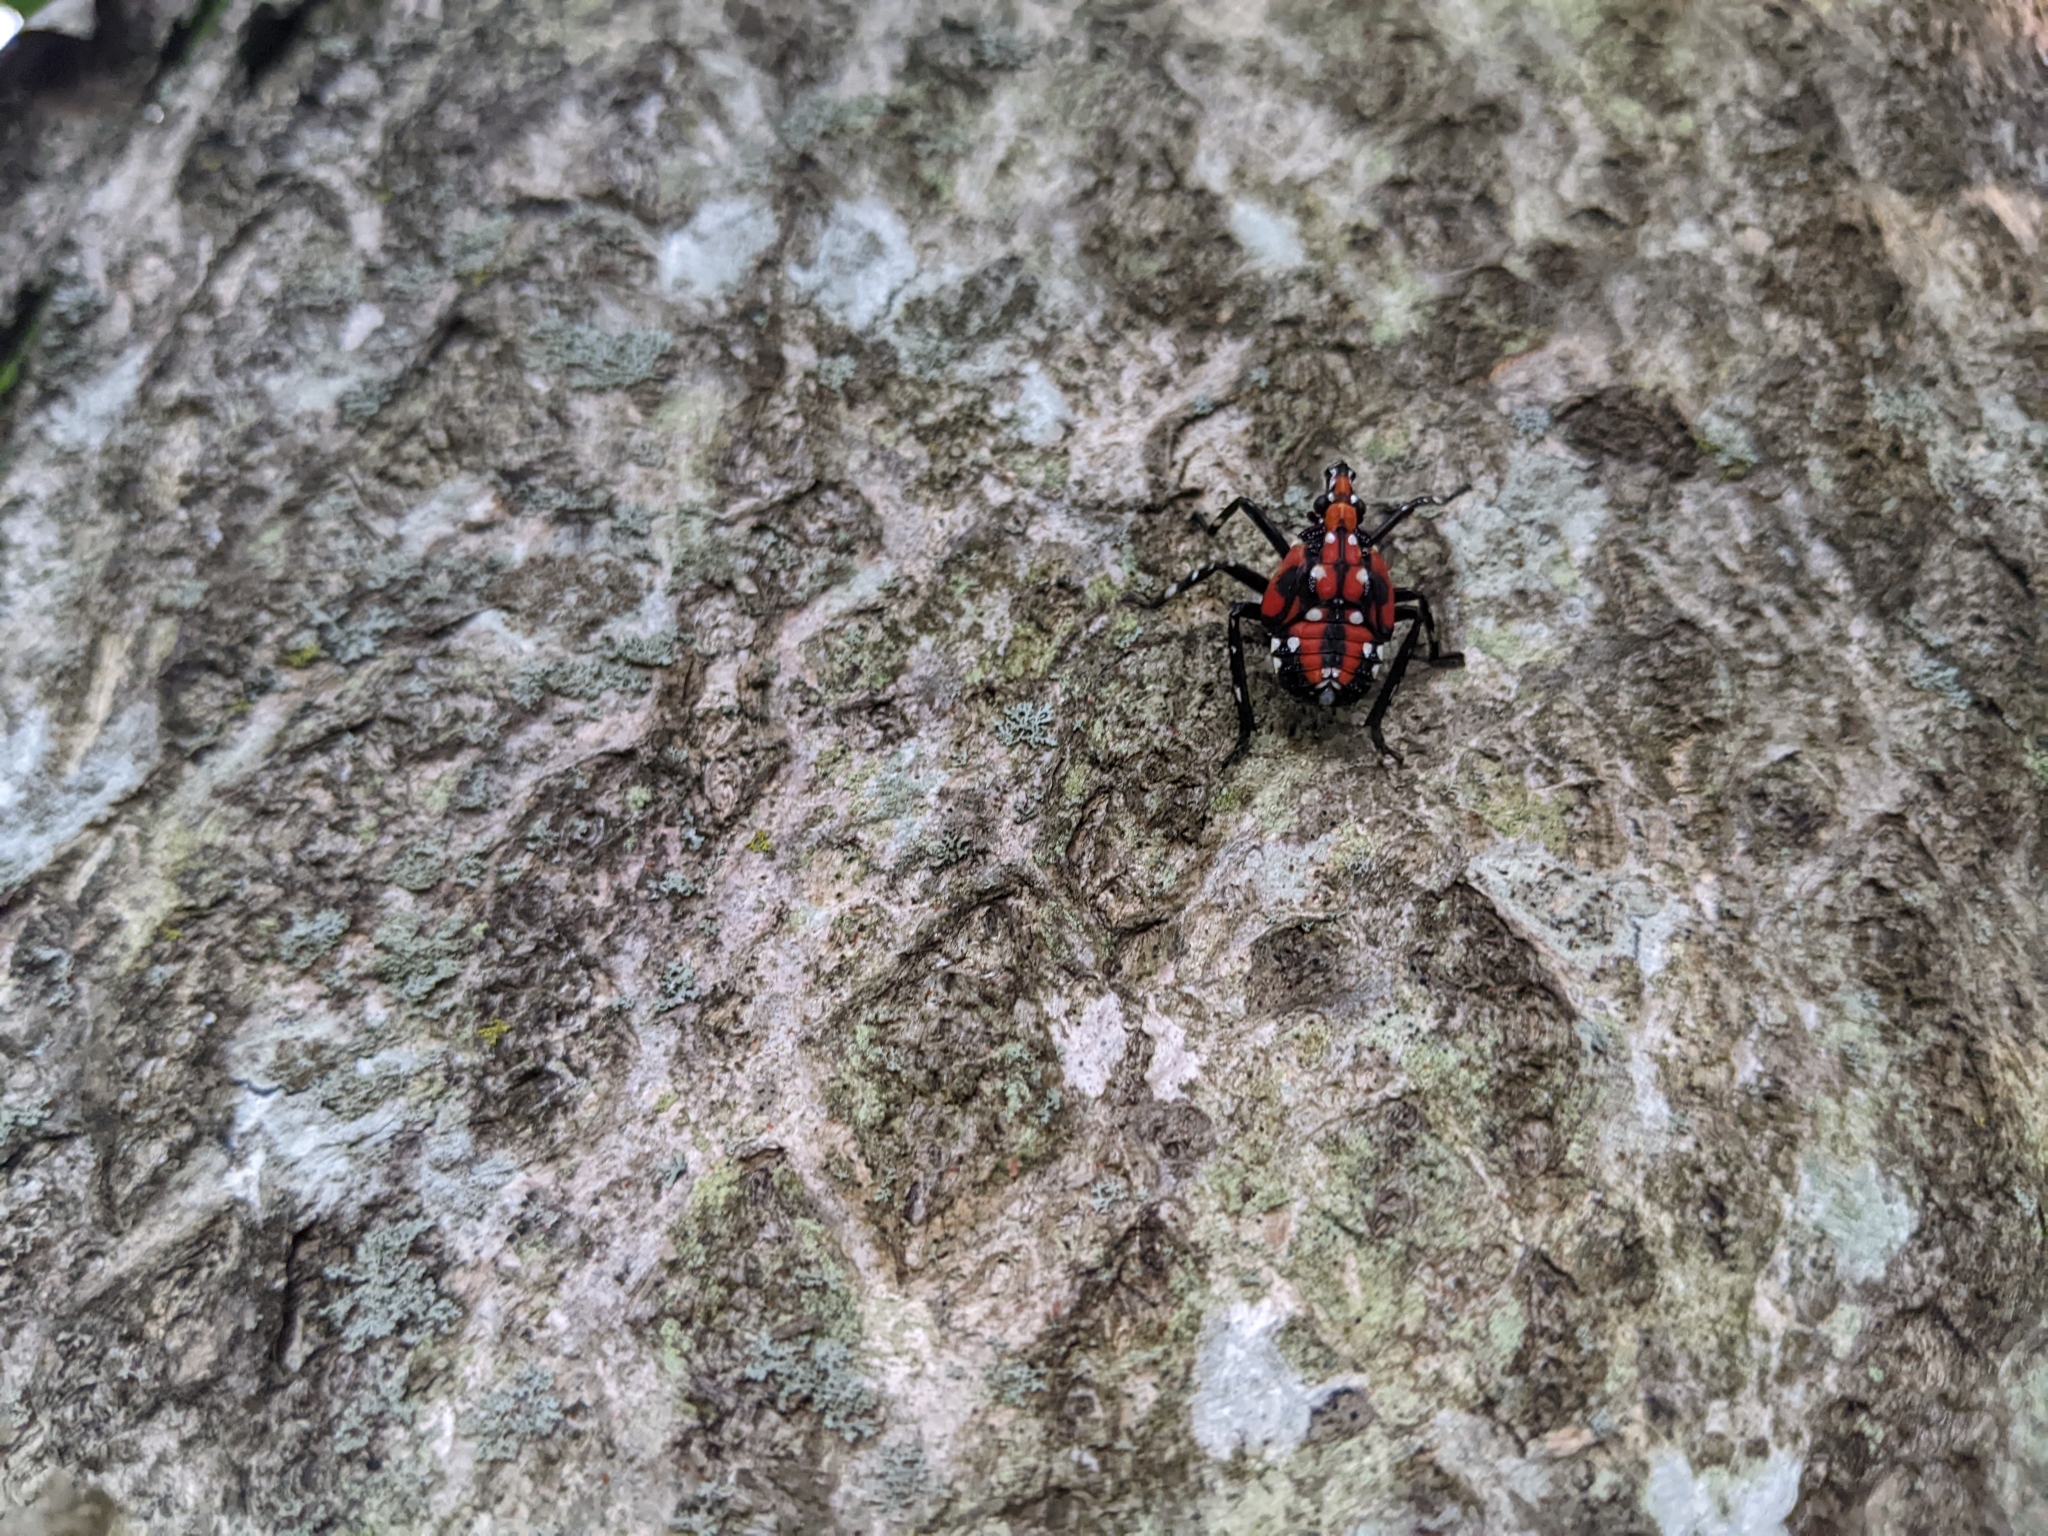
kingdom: Animalia
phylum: Arthropoda
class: Insecta
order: Hemiptera
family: Fulgoridae
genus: Lycorma
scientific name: Lycorma delicatula
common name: Spotted lanternfly
